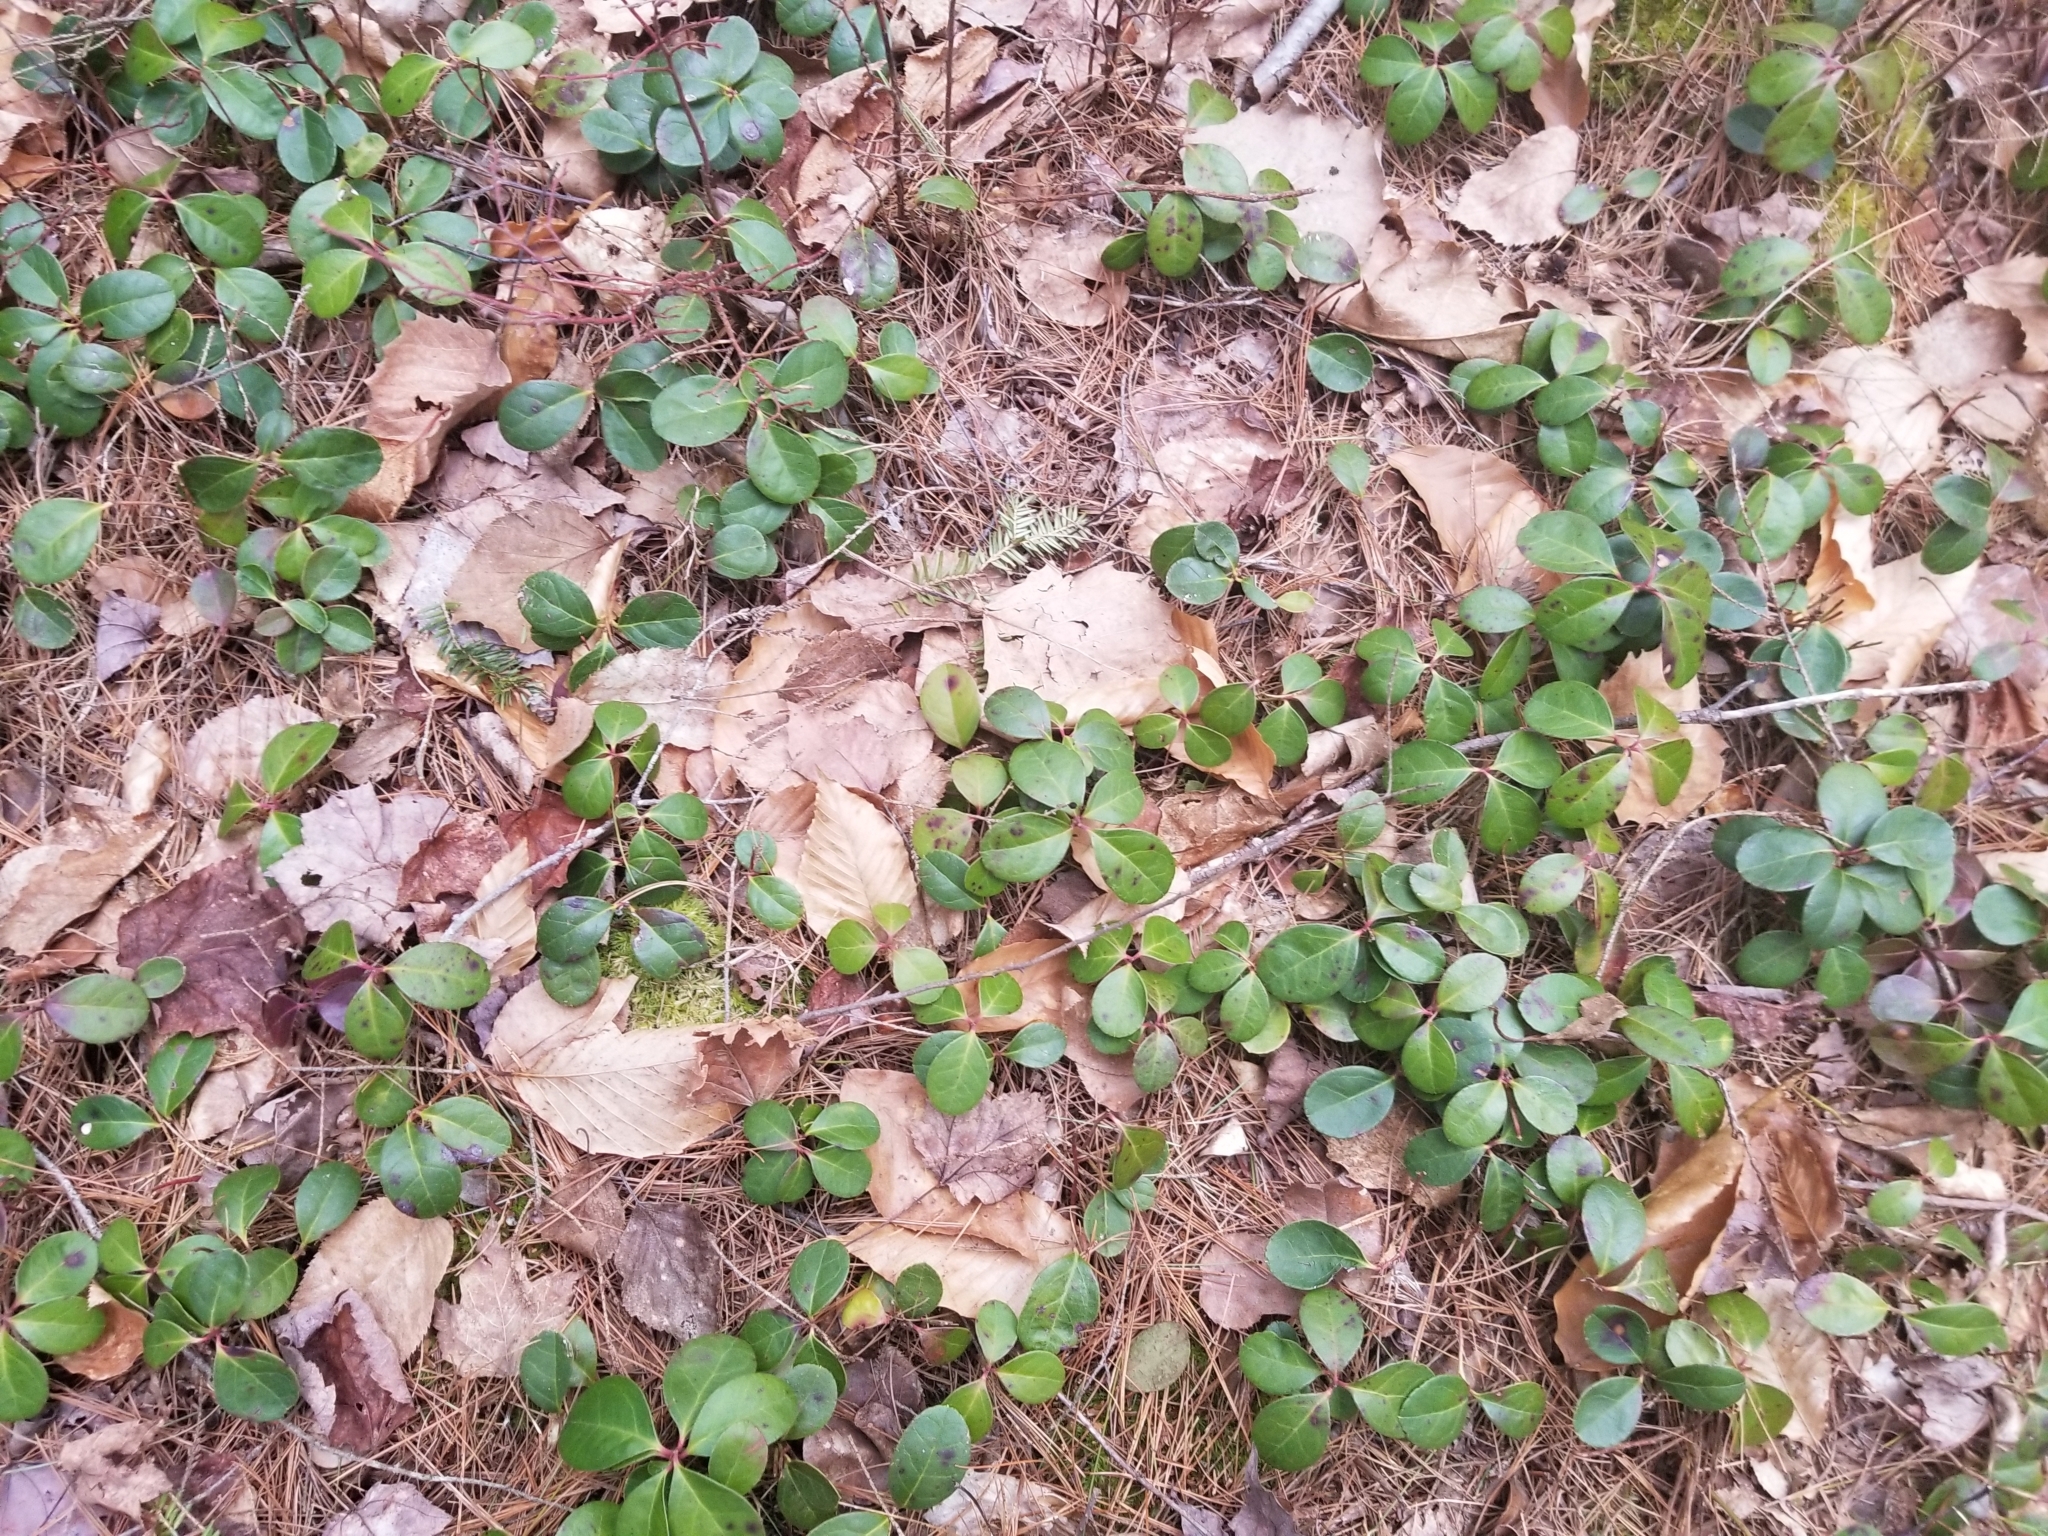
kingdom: Plantae
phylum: Tracheophyta
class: Magnoliopsida
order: Ericales
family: Ericaceae
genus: Gaultheria
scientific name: Gaultheria procumbens
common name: Checkerberry
